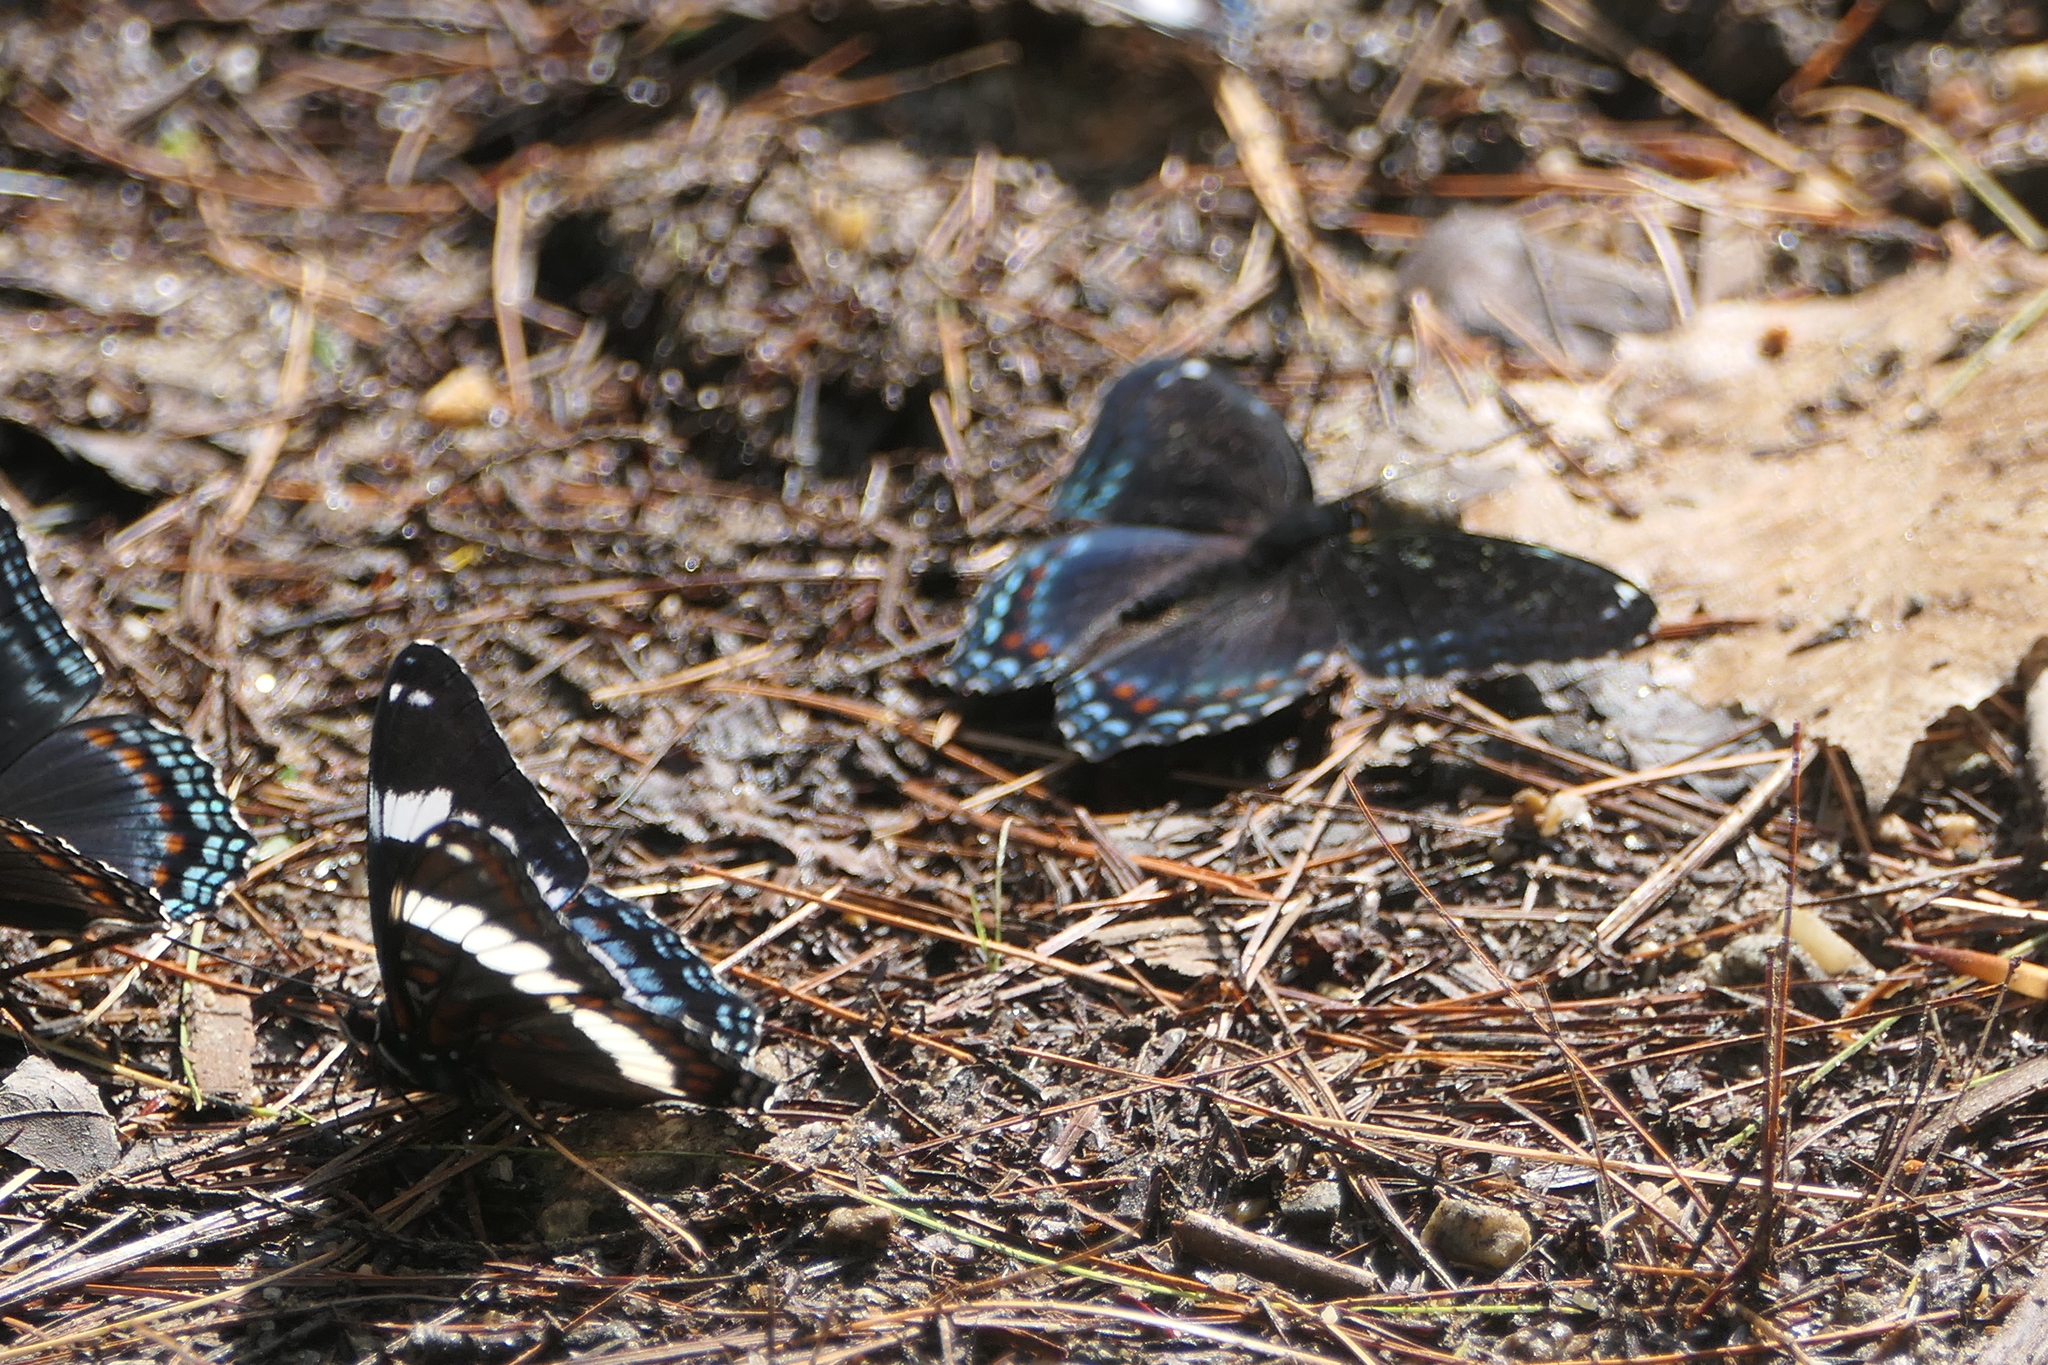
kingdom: Animalia
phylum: Arthropoda
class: Insecta
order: Lepidoptera
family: Nymphalidae
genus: Limenitis
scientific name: Limenitis arthemis
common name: Red-spotted admiral
